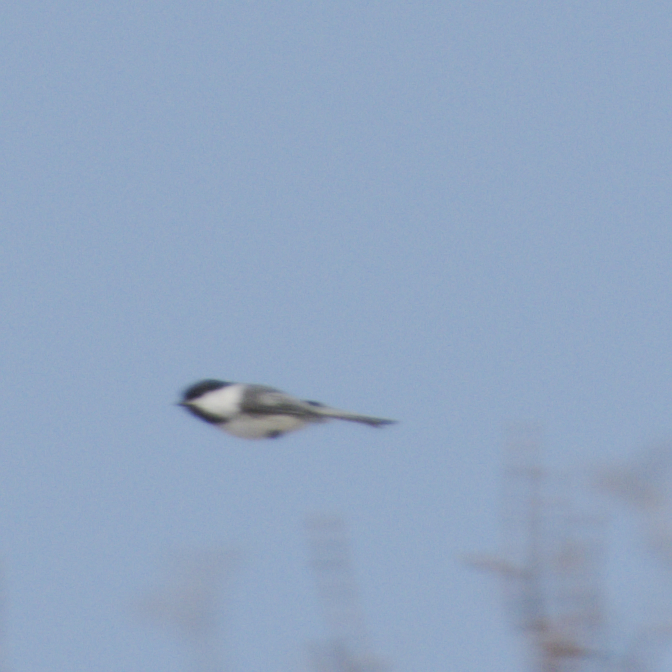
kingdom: Animalia
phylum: Chordata
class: Aves
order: Passeriformes
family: Paridae
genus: Poecile
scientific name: Poecile atricapillus
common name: Black-capped chickadee
